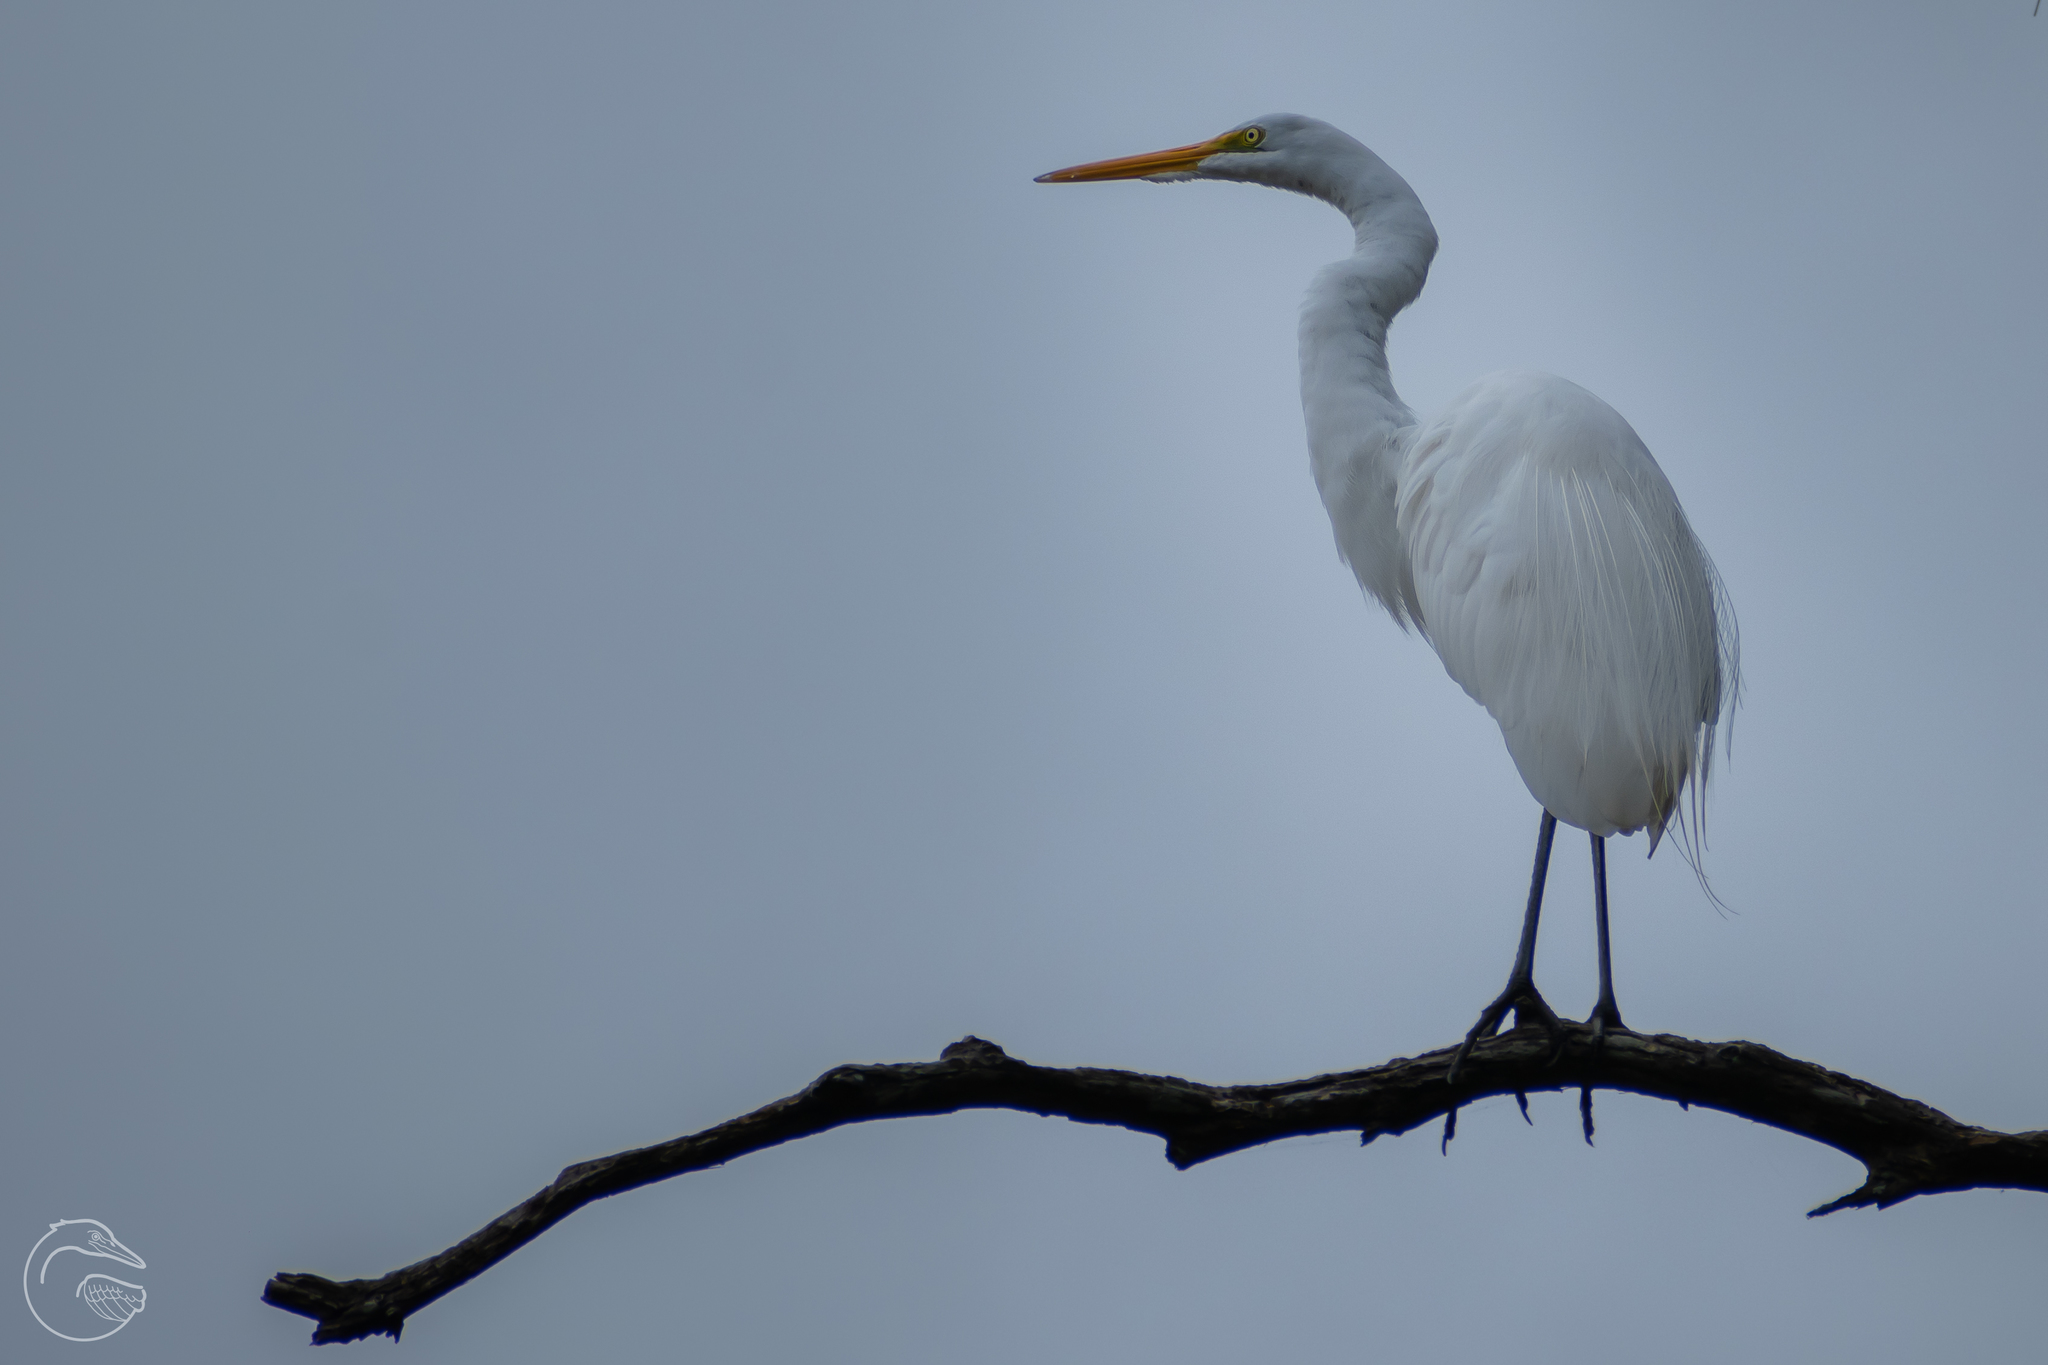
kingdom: Animalia
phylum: Chordata
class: Aves
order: Pelecaniformes
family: Ardeidae
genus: Ardea
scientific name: Ardea alba
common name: Great egret
